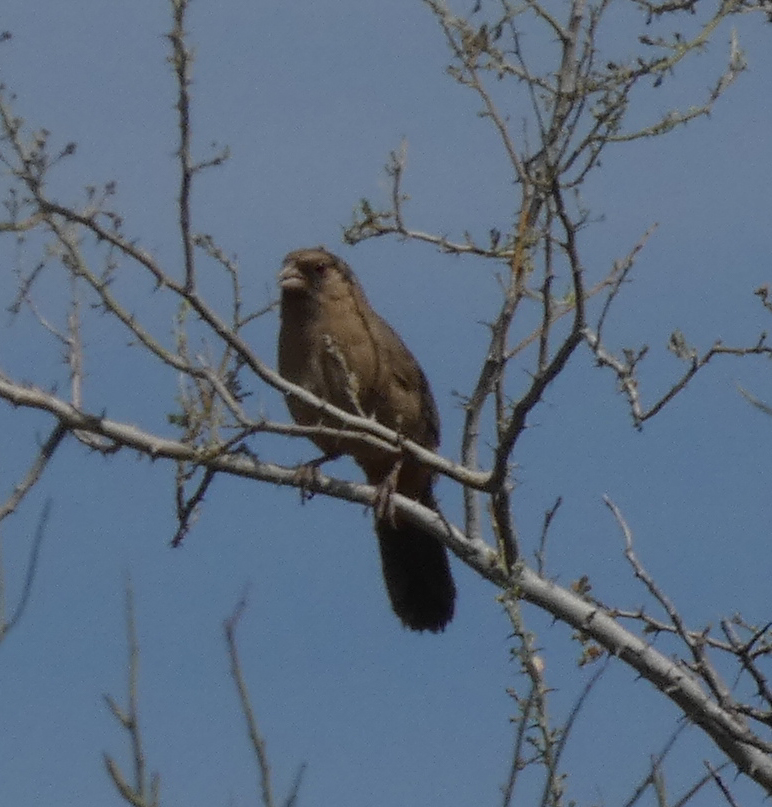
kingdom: Animalia
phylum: Chordata
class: Aves
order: Passeriformes
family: Passerellidae
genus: Melozone
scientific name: Melozone aberti
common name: Abert's towhee
